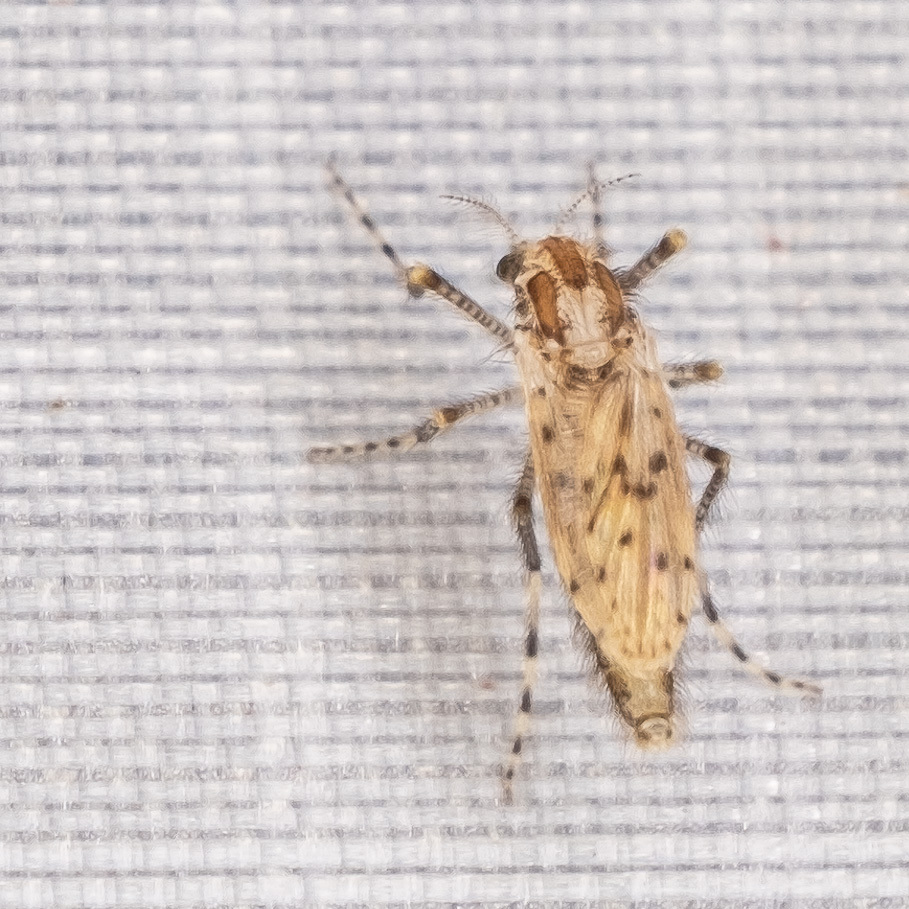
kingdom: Animalia
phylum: Arthropoda
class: Insecta
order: Diptera
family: Chaoboridae
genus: Chaoborus
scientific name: Chaoborus punctipennis
